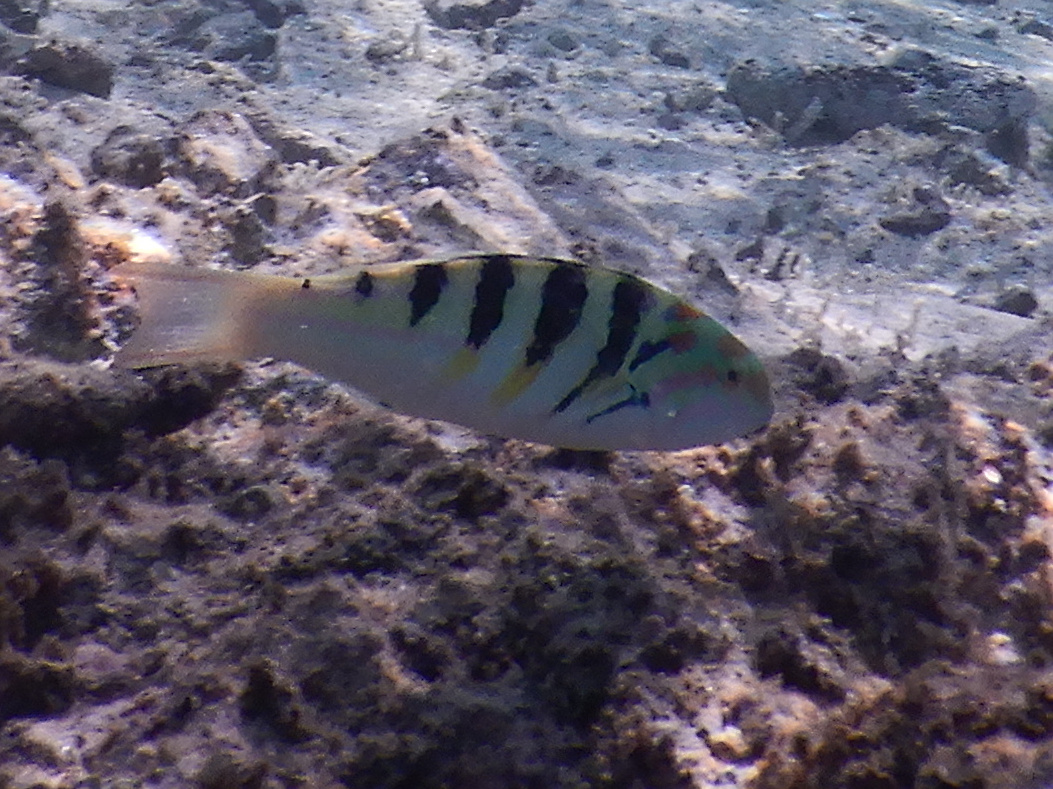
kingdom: Animalia
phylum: Chordata
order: Perciformes
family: Labridae
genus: Thalassoma
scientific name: Thalassoma hardwicke
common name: Sixbar wrasse
